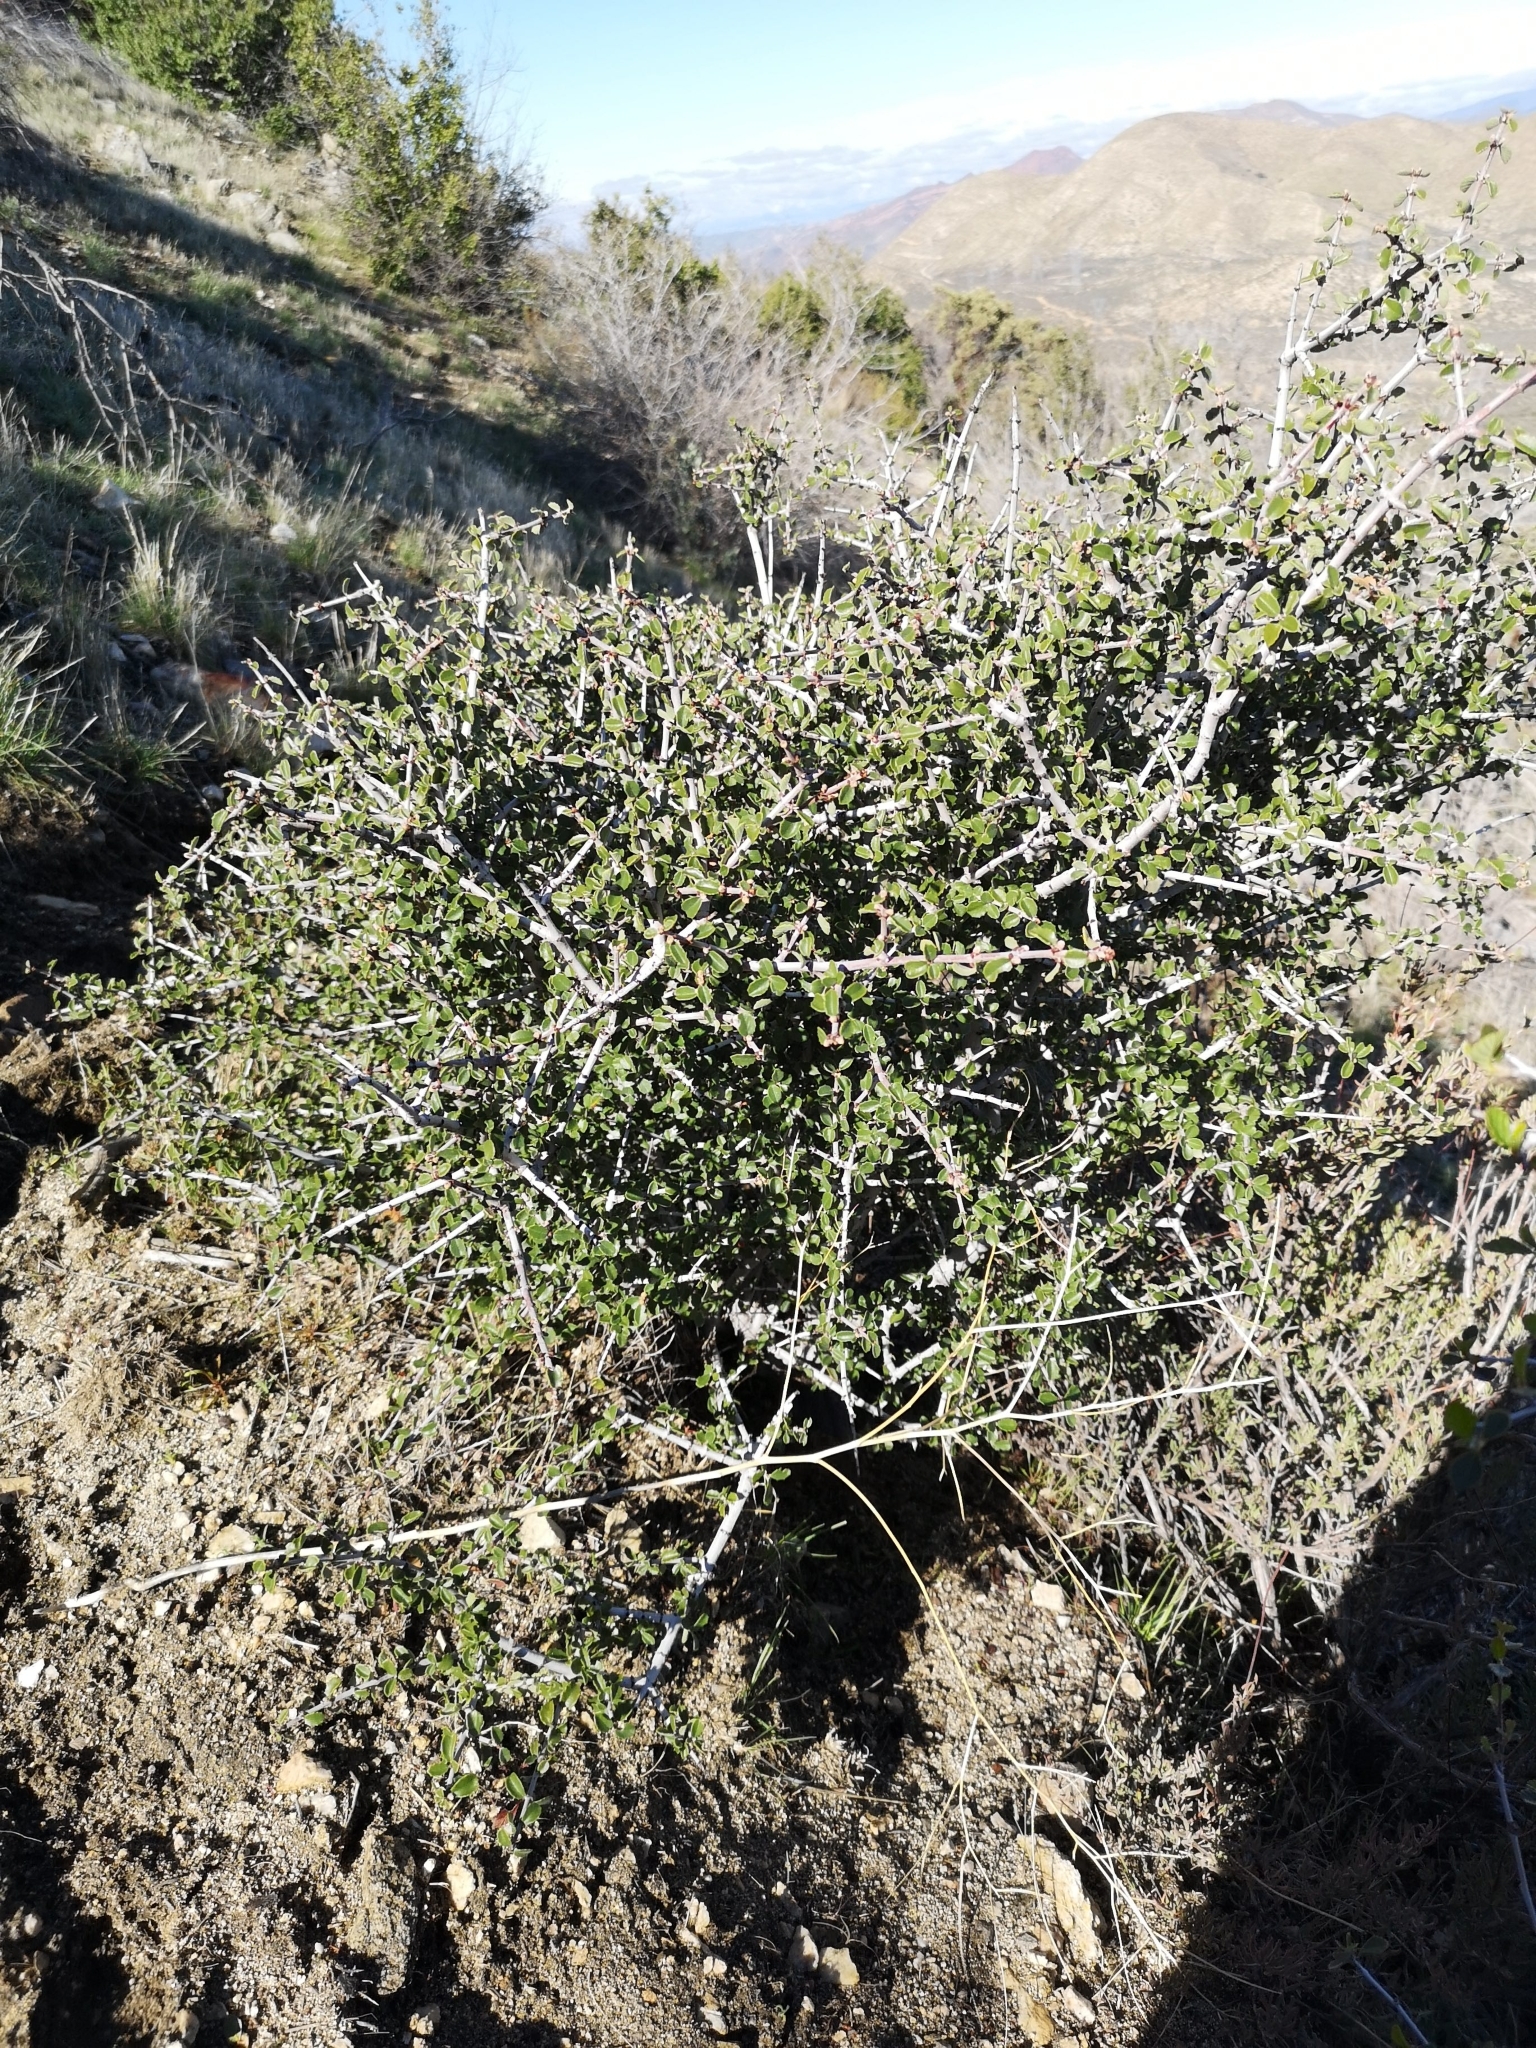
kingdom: Plantae
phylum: Tracheophyta
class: Magnoliopsida
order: Rosales
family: Rhamnaceae
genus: Ceanothus
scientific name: Ceanothus pauciflorus
